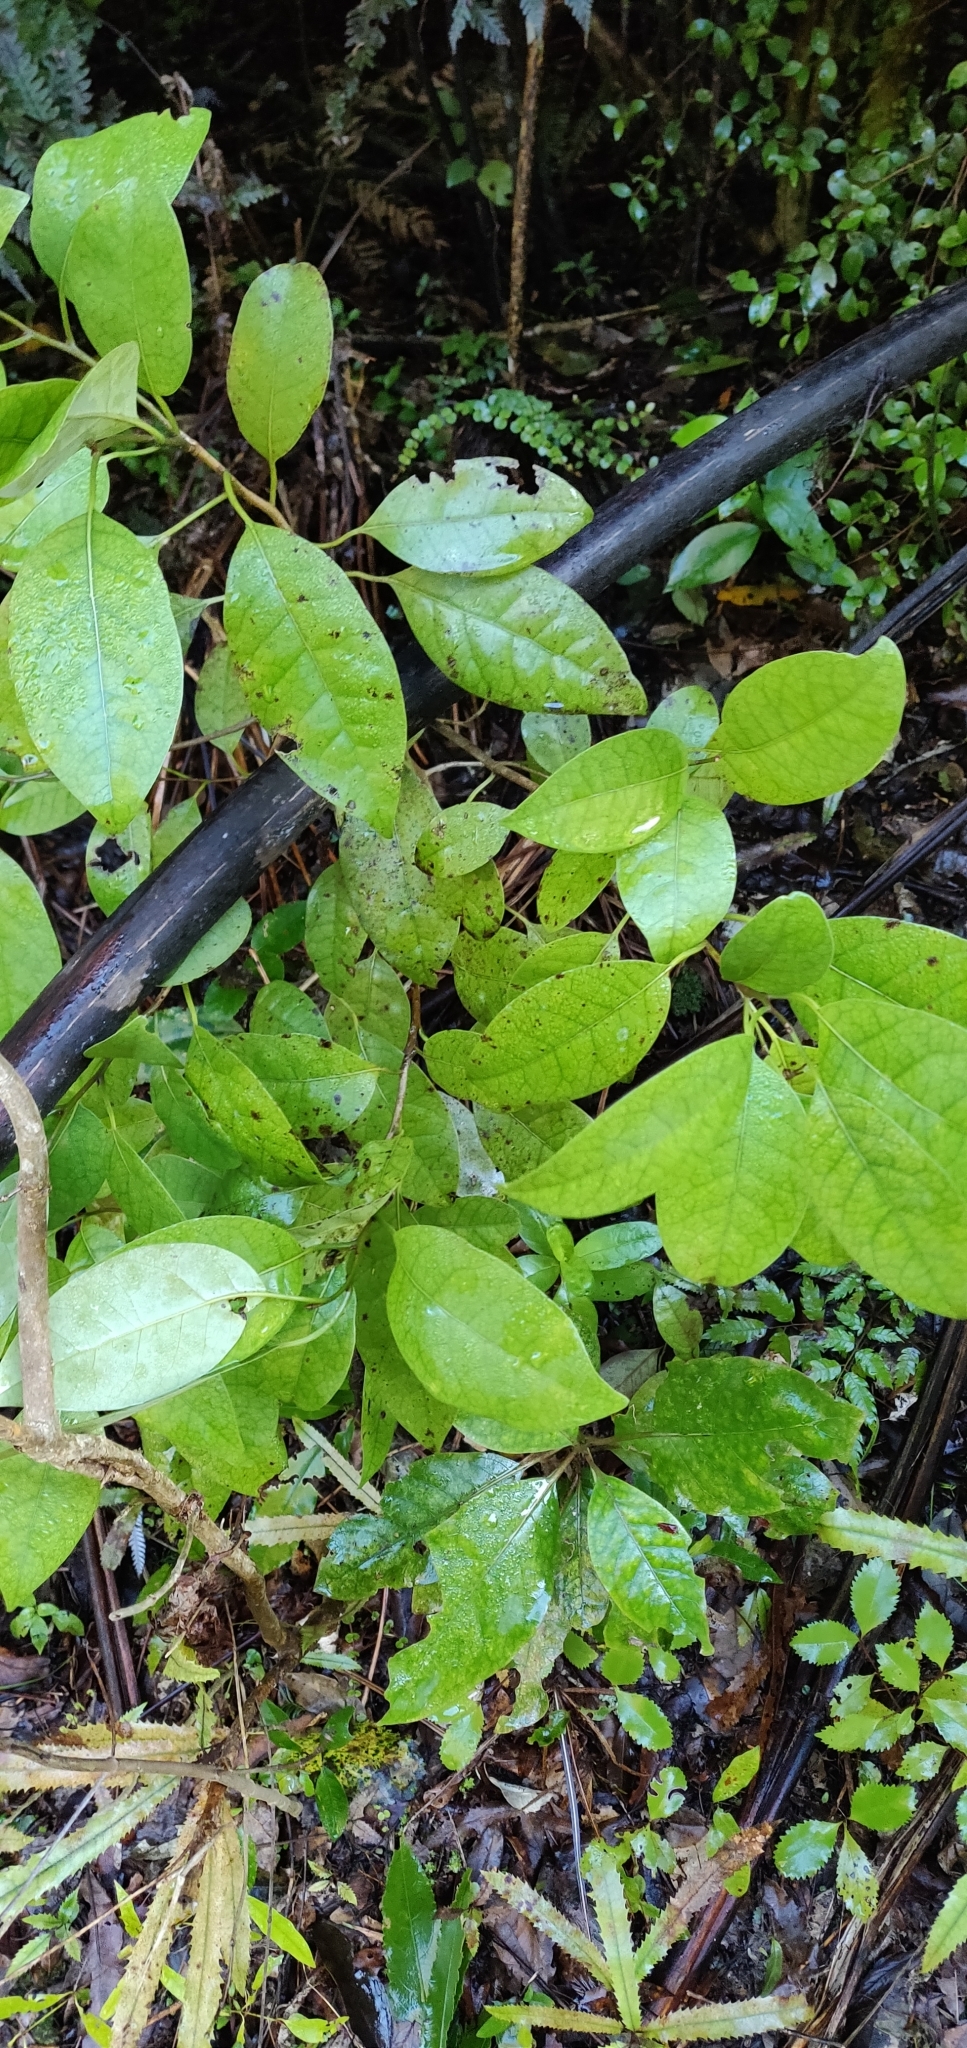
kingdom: Plantae
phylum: Tracheophyta
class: Magnoliopsida
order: Laurales
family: Lauraceae
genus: Litsea
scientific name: Litsea calicaris
